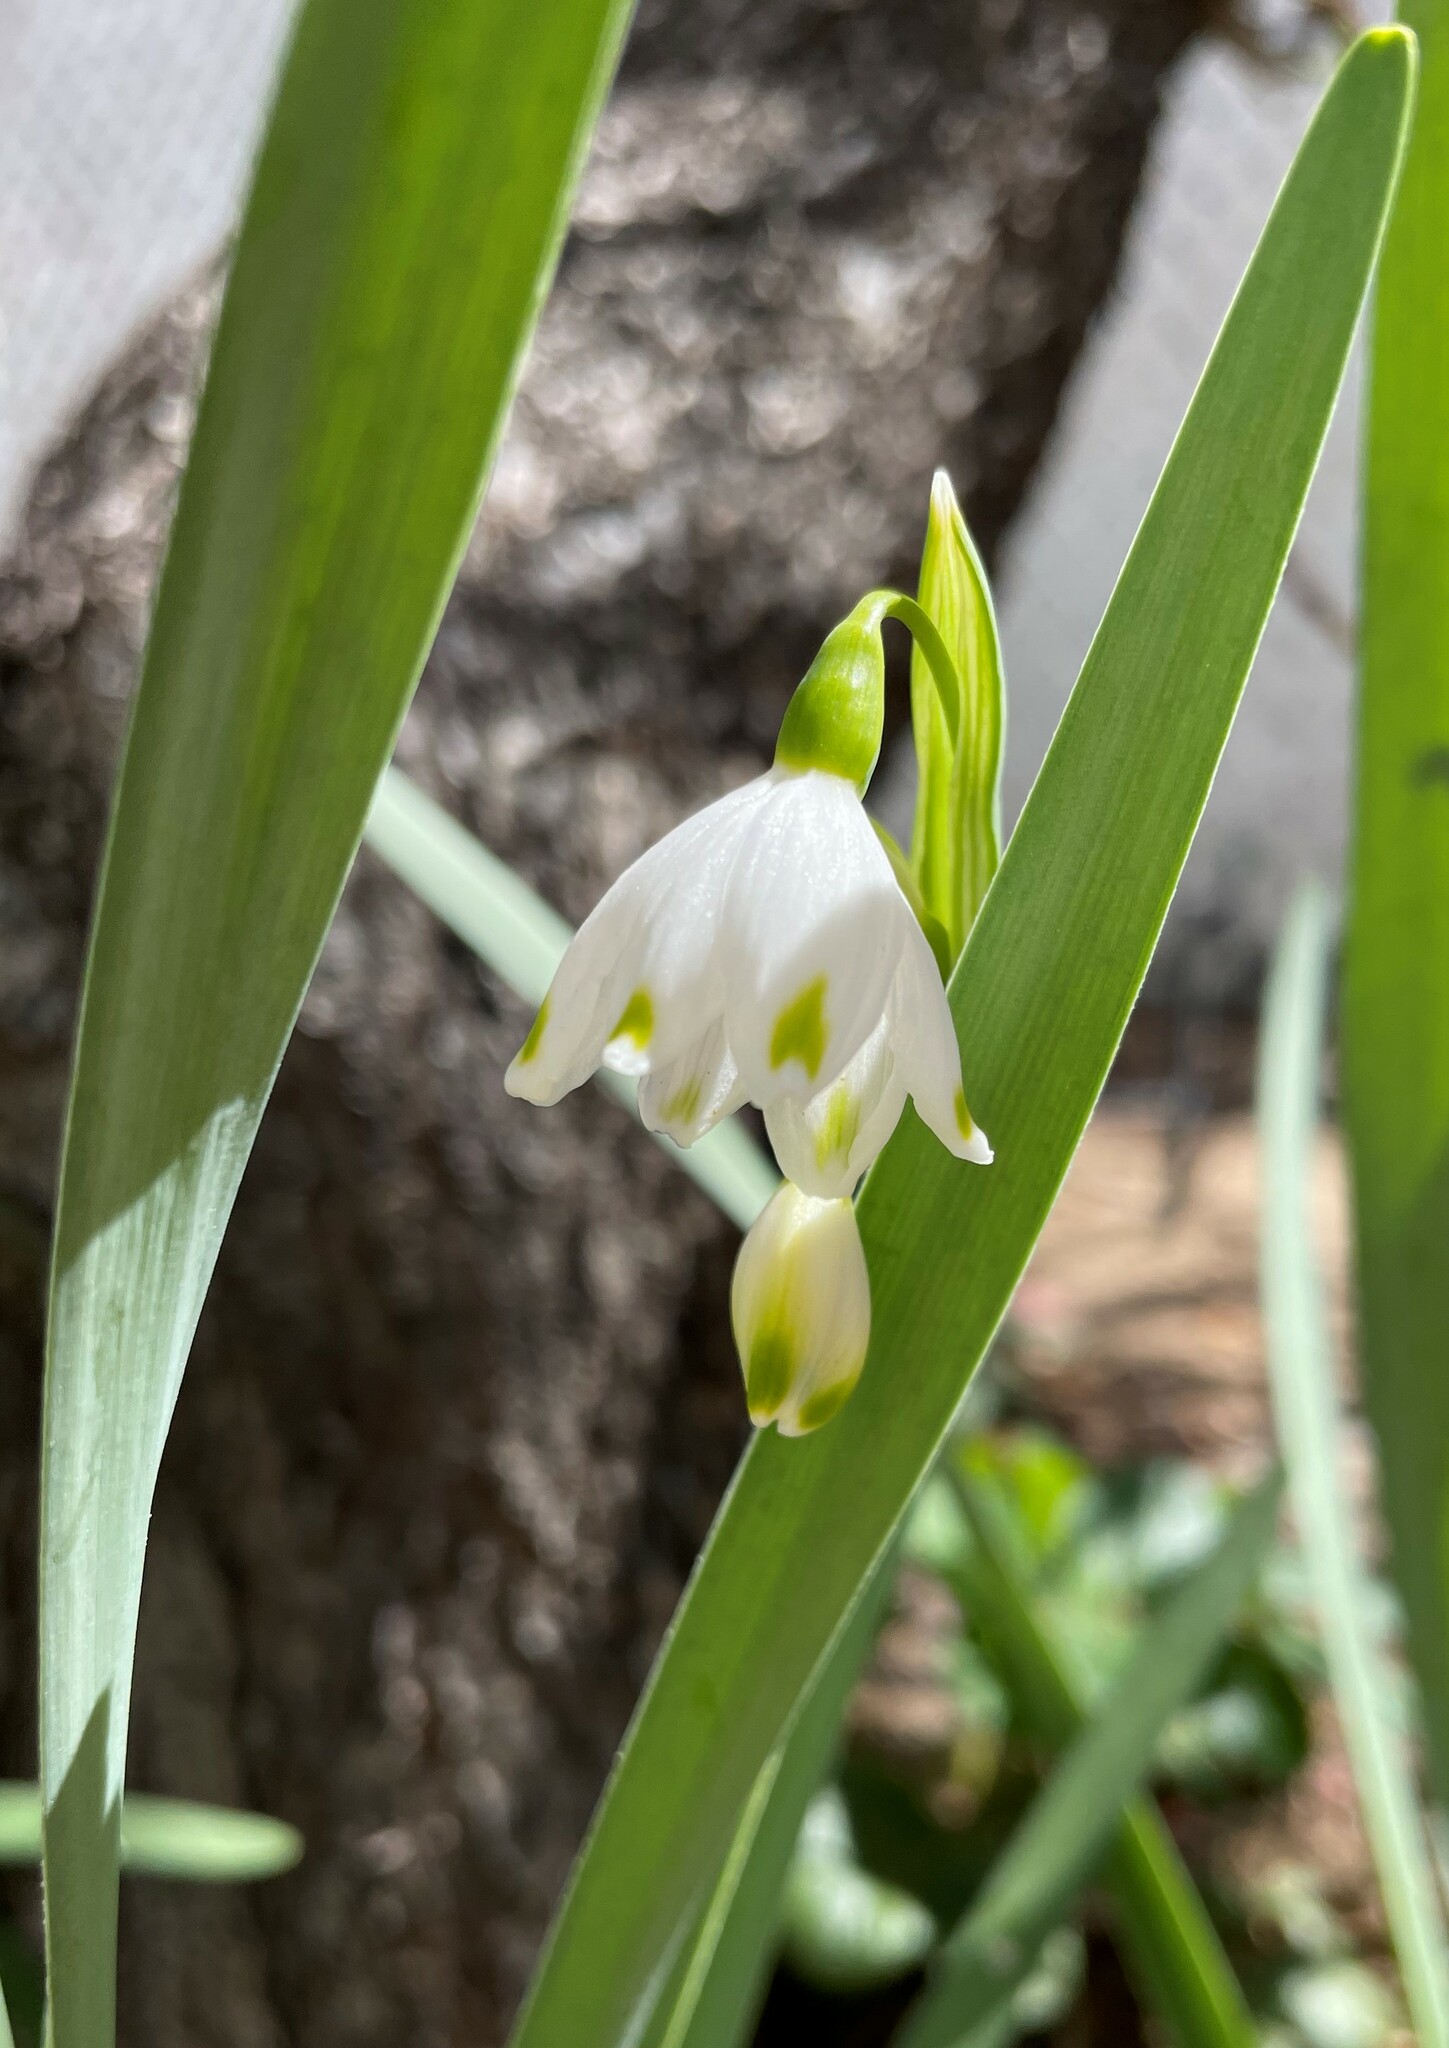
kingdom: Plantae
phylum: Tracheophyta
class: Liliopsida
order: Asparagales
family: Amaryllidaceae
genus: Leucojum
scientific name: Leucojum aestivum
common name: Summer snowflake
